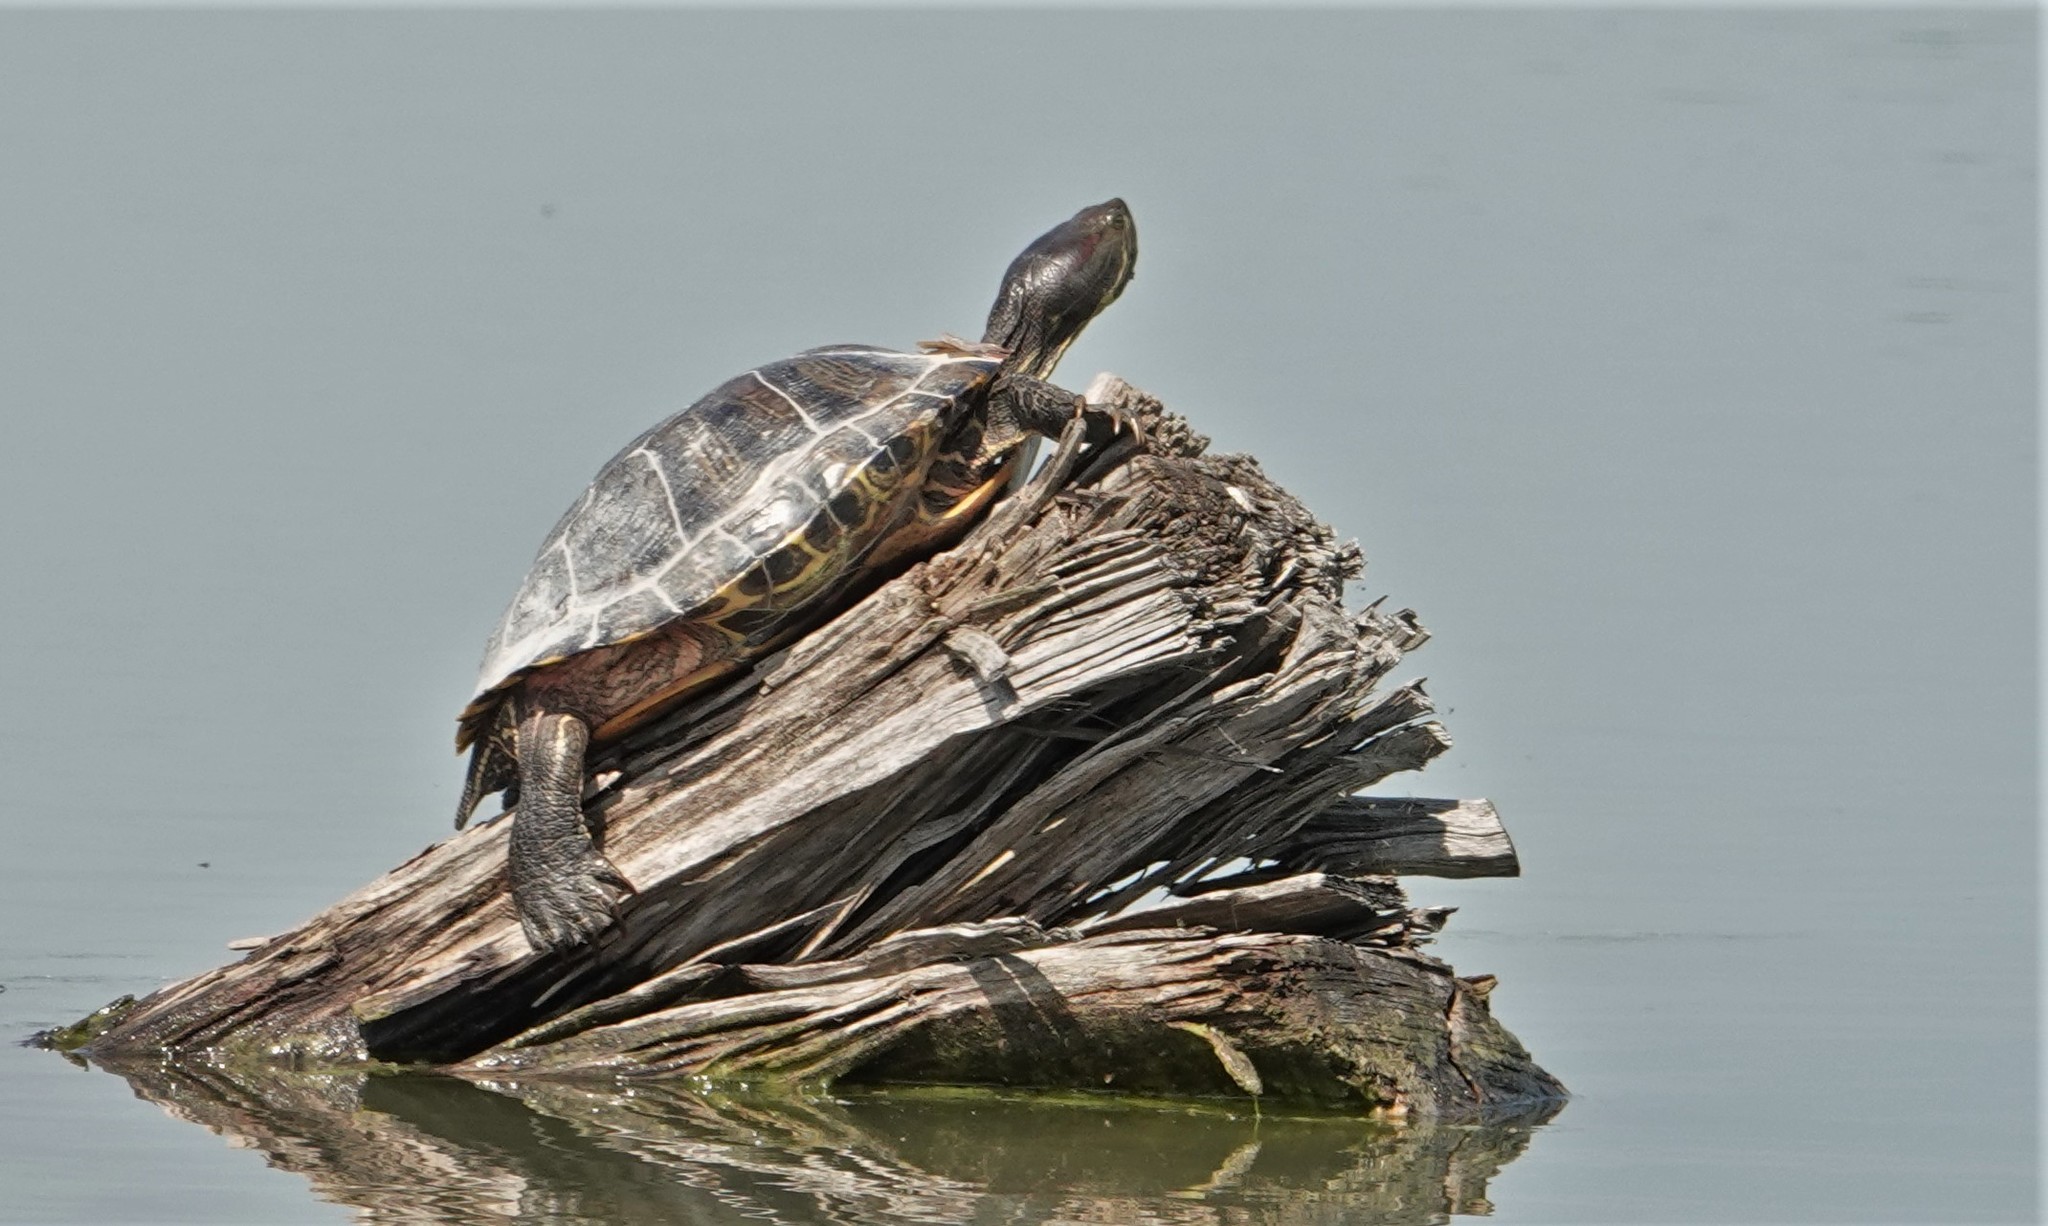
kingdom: Animalia
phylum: Chordata
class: Testudines
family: Emydidae
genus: Trachemys
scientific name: Trachemys scripta
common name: Slider
